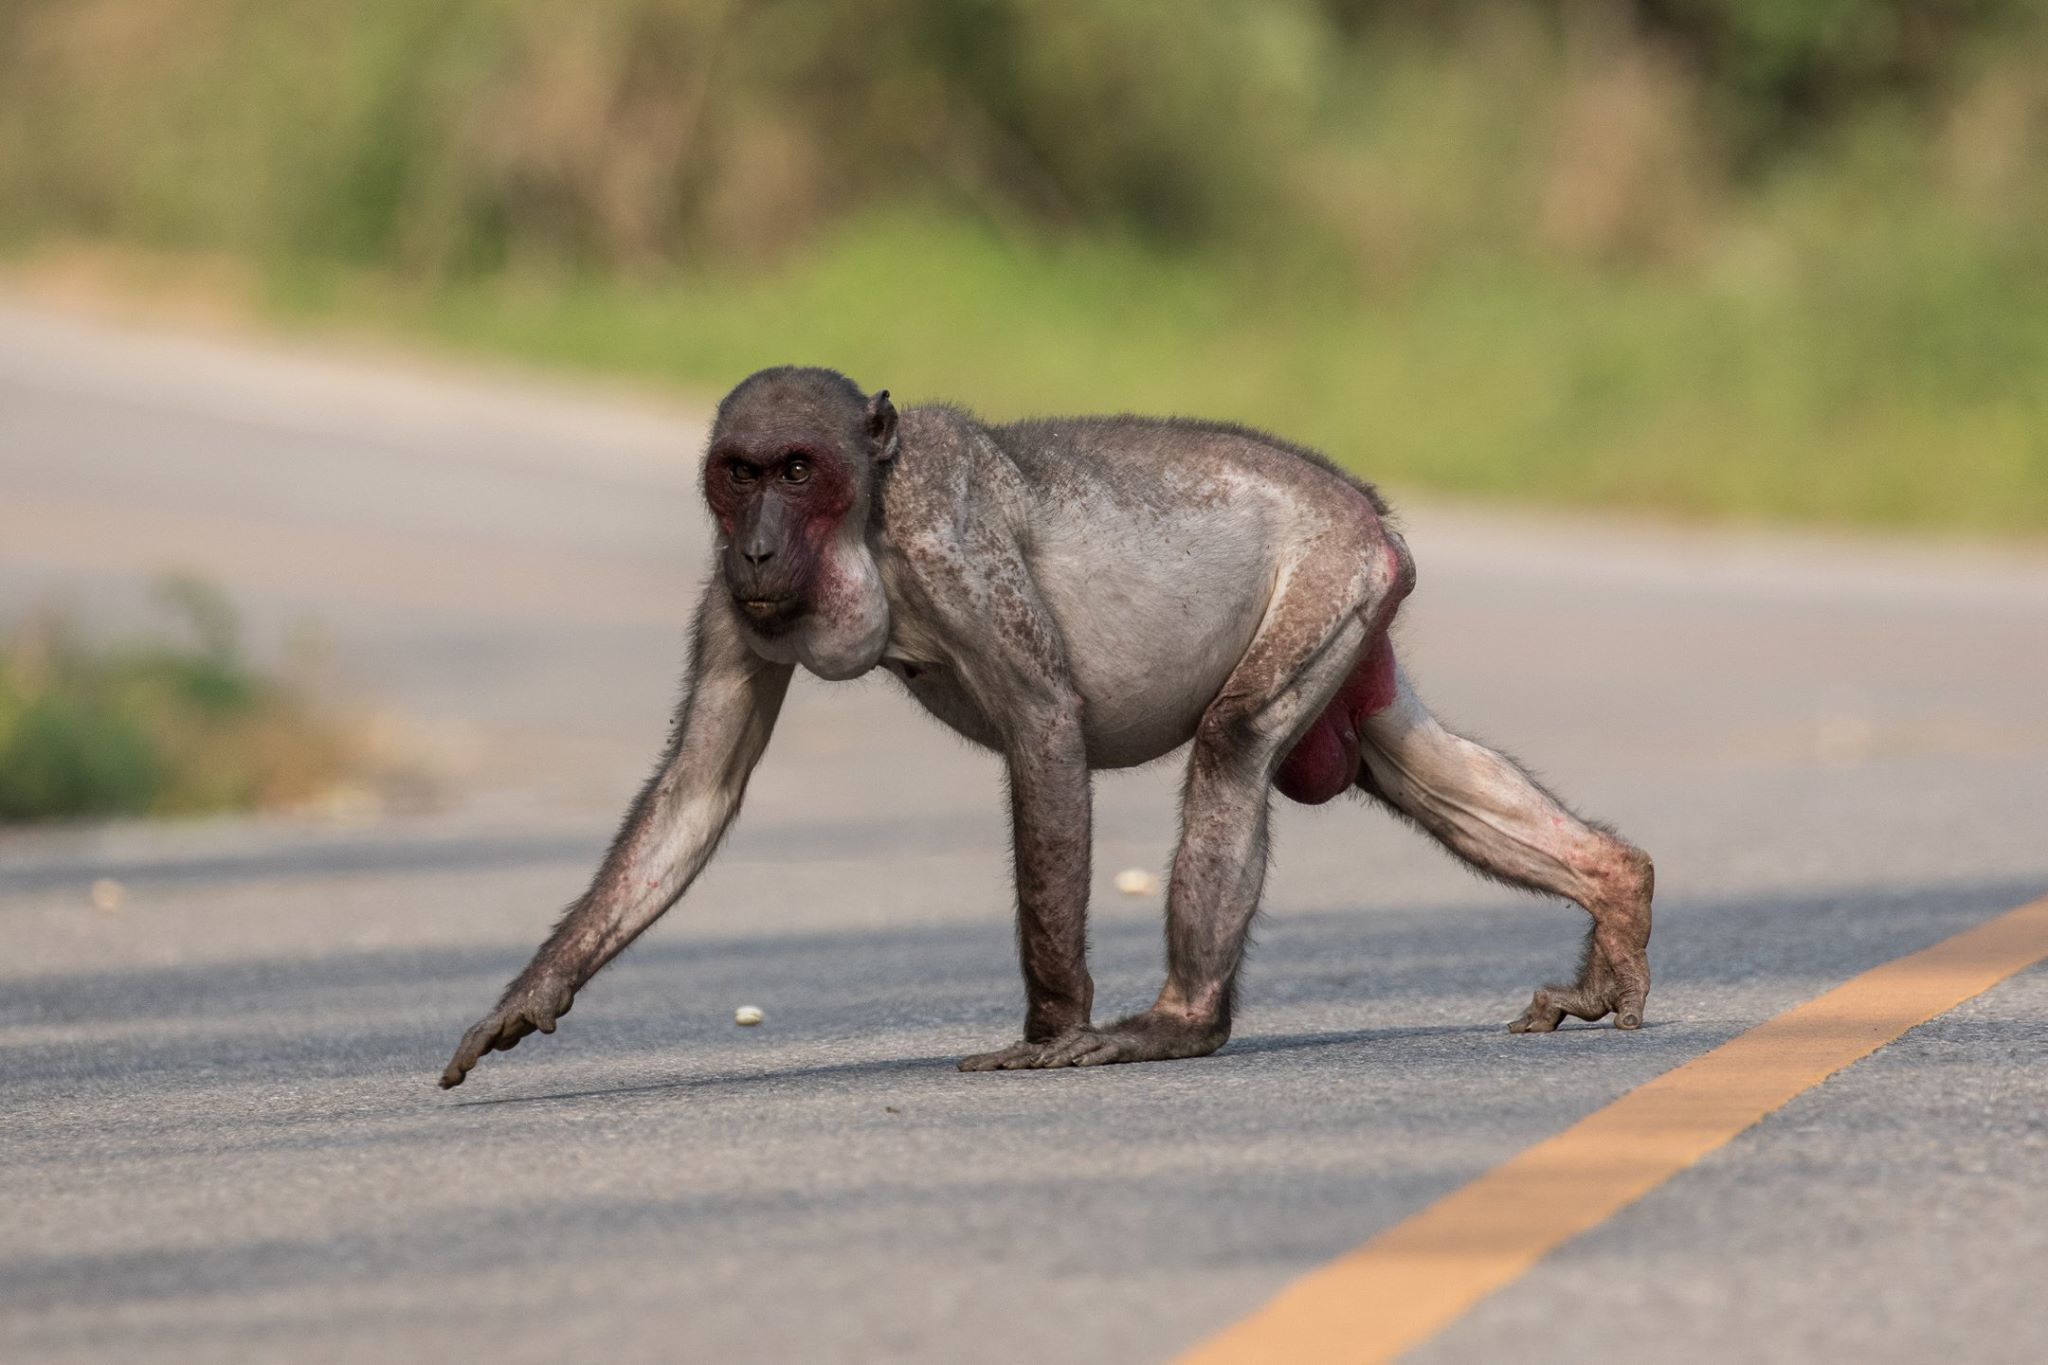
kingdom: Animalia
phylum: Chordata
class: Mammalia
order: Primates
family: Cercopithecidae
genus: Macaca
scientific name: Macaca arctoides
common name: Stump-tailed macaque
